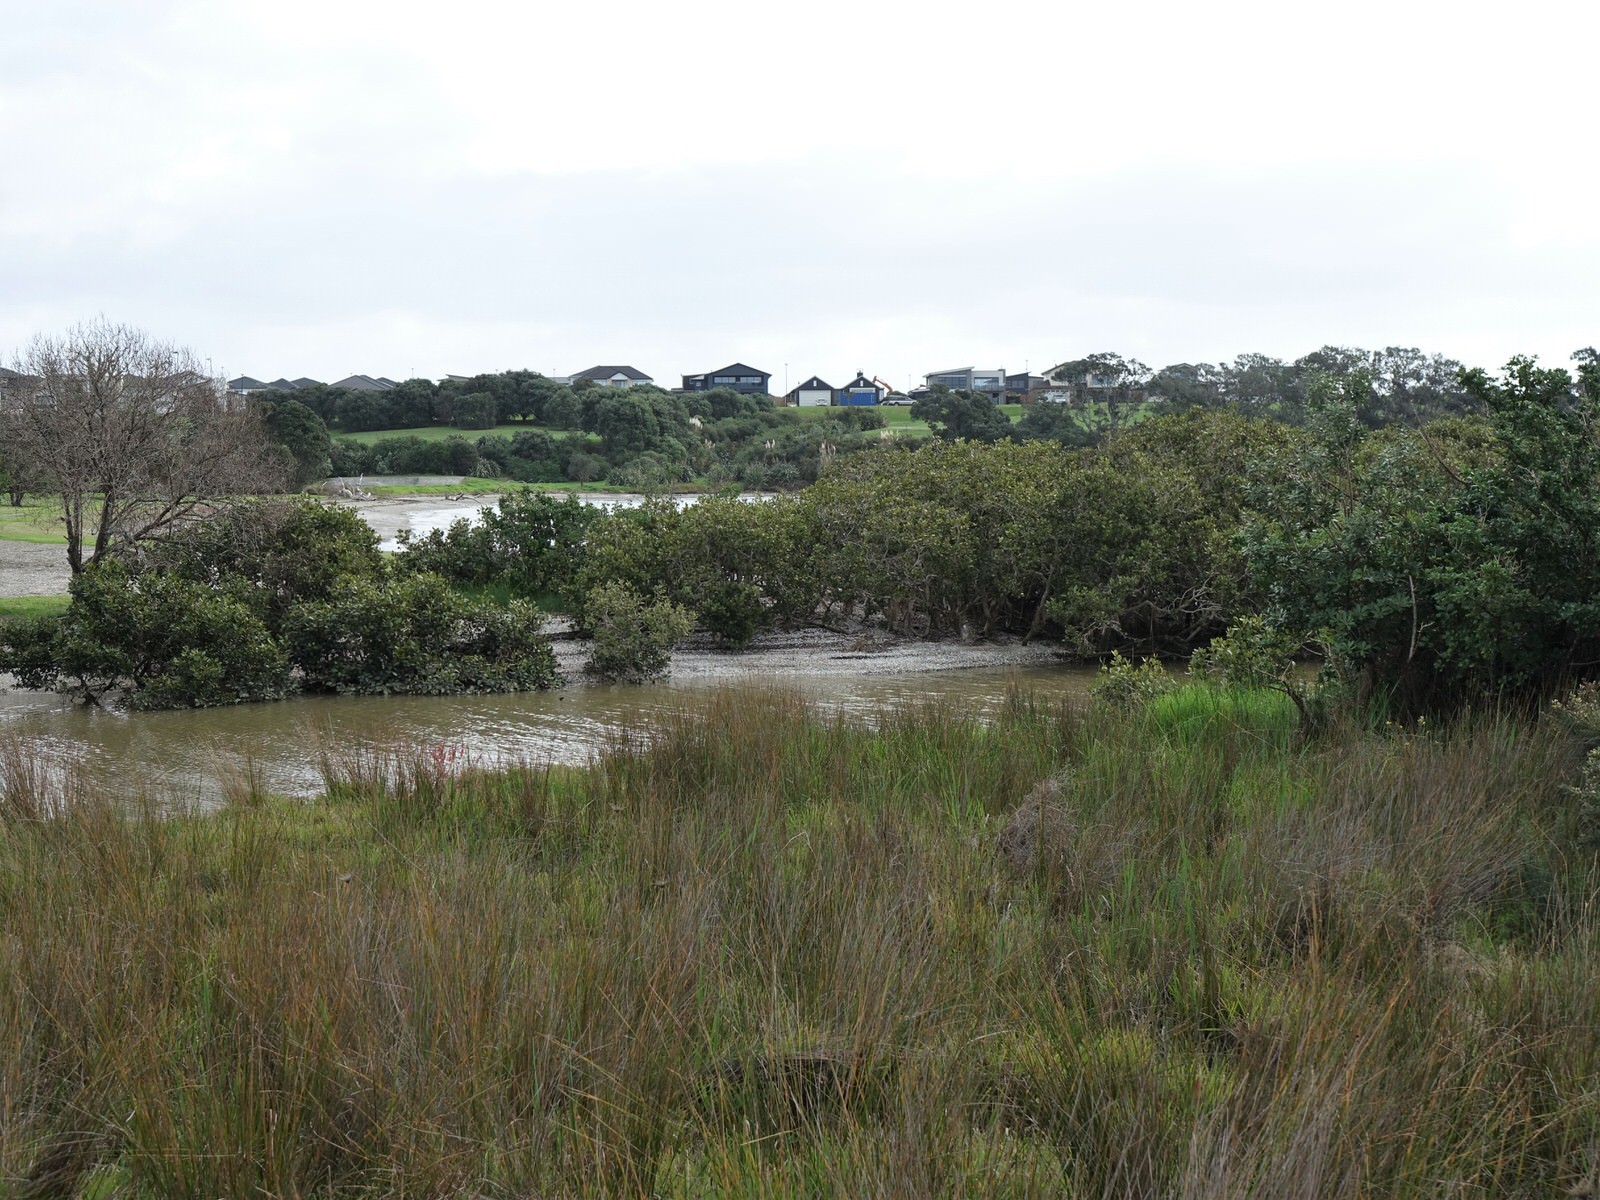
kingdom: Animalia
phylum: Chordata
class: Aves
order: Pelecaniformes
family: Ardeidae
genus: Egretta
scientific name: Egretta novaehollandiae
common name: White-faced heron
